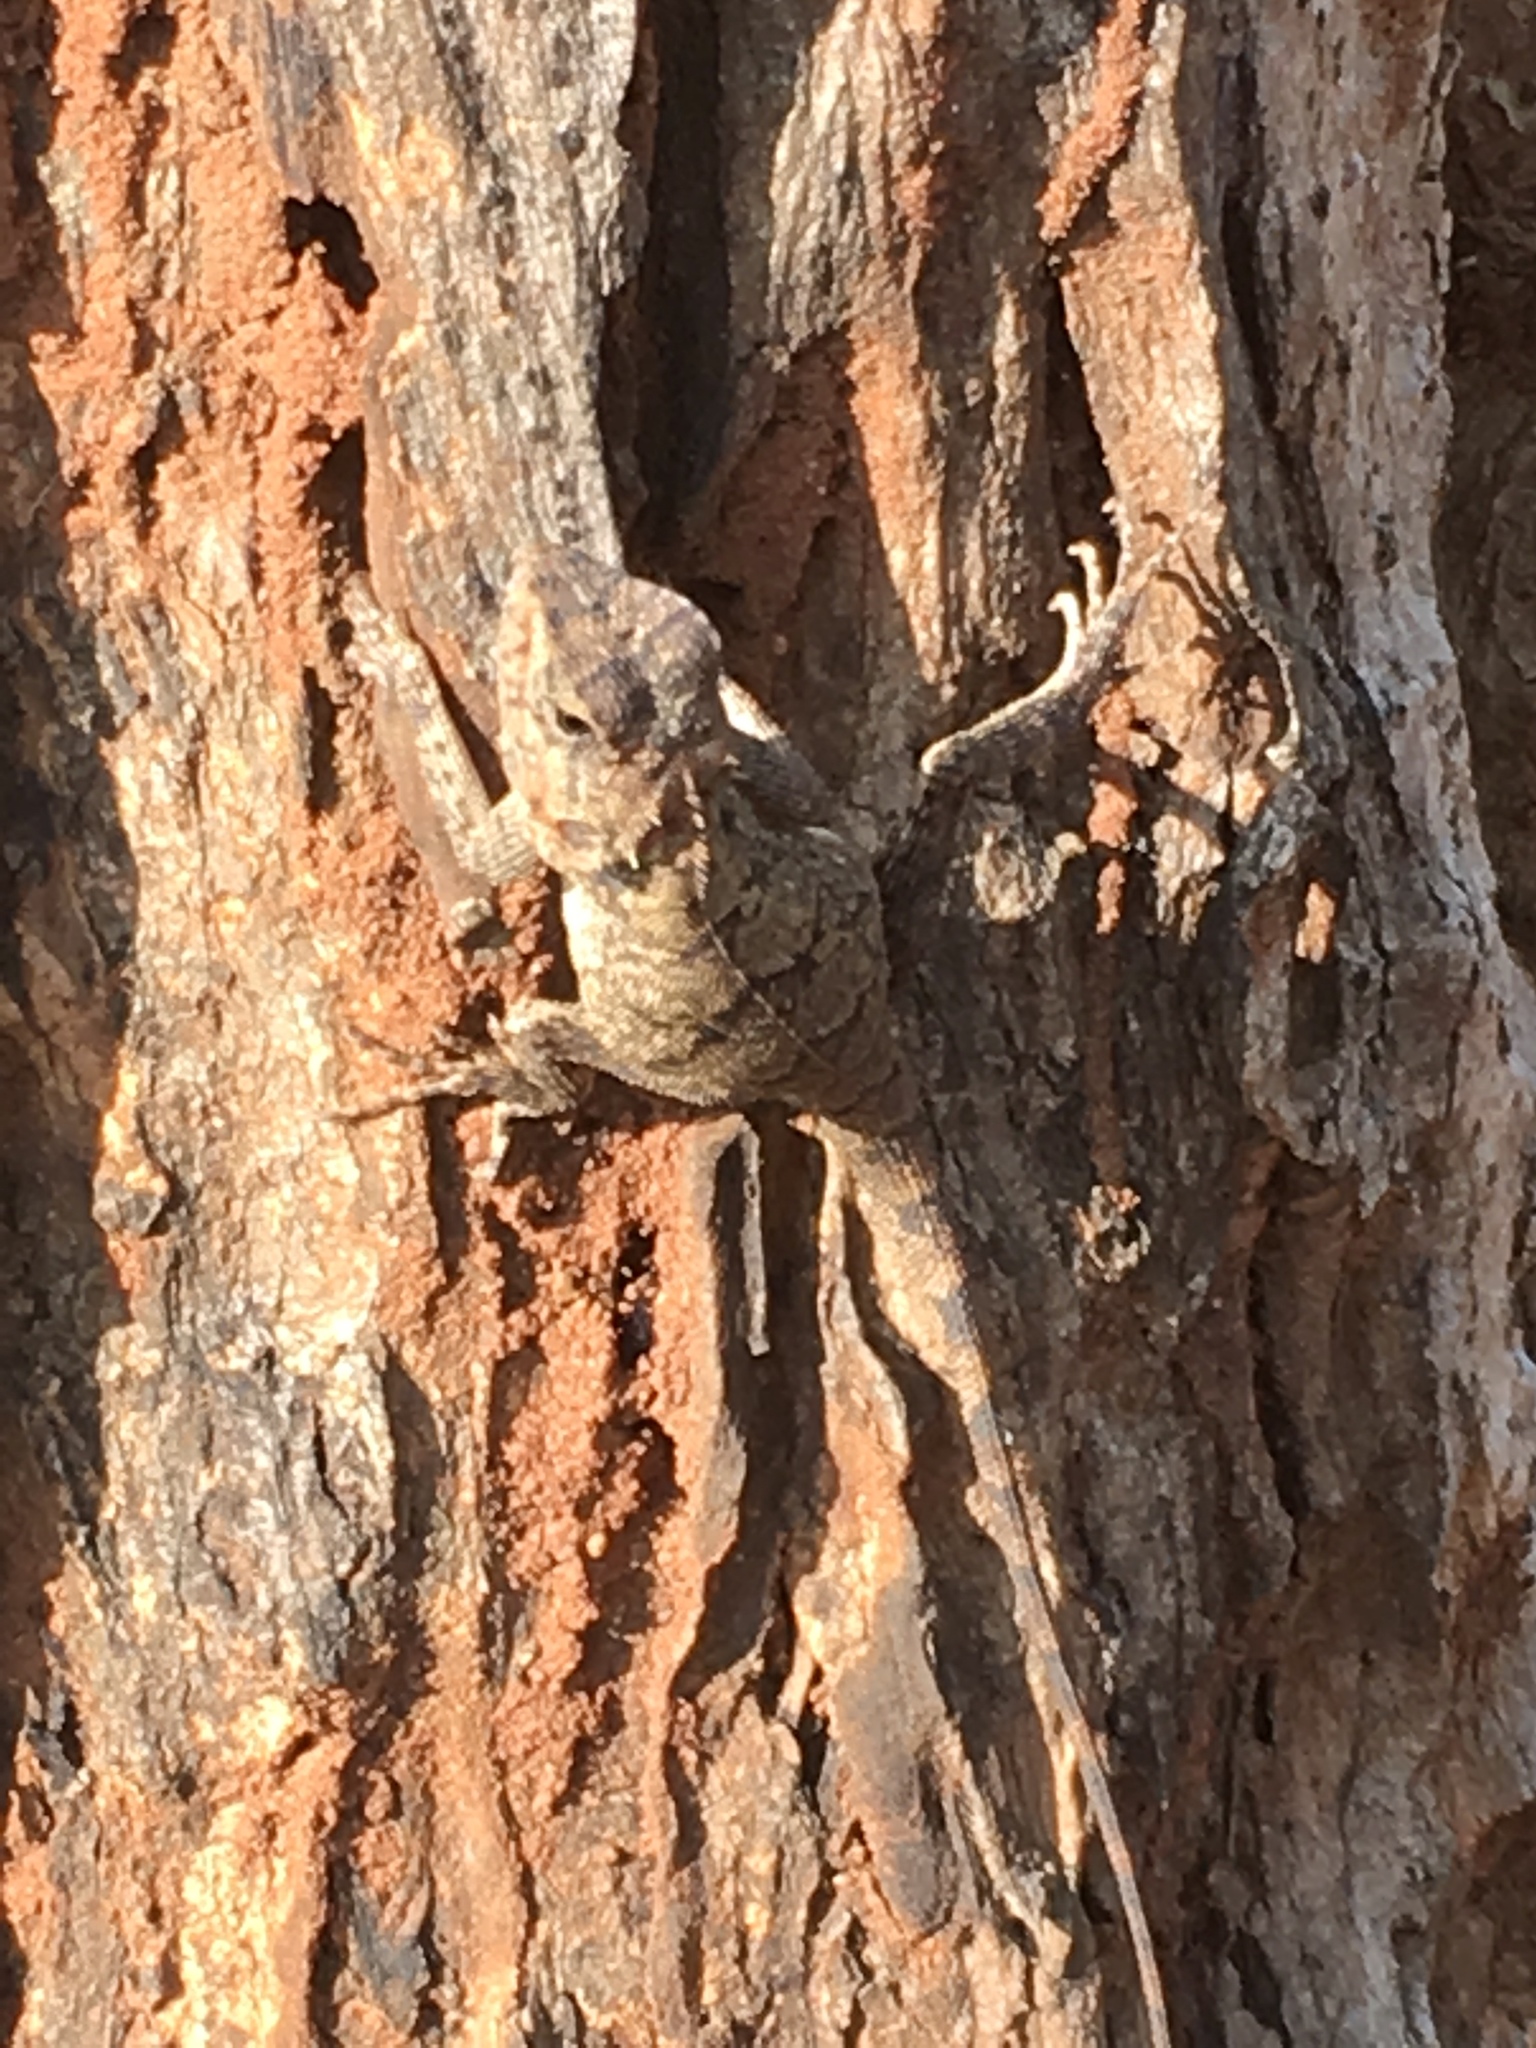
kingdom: Animalia
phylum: Chordata
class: Squamata
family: Agamidae
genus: Calotes
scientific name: Calotes versicolor
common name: Oriental garden lizard
